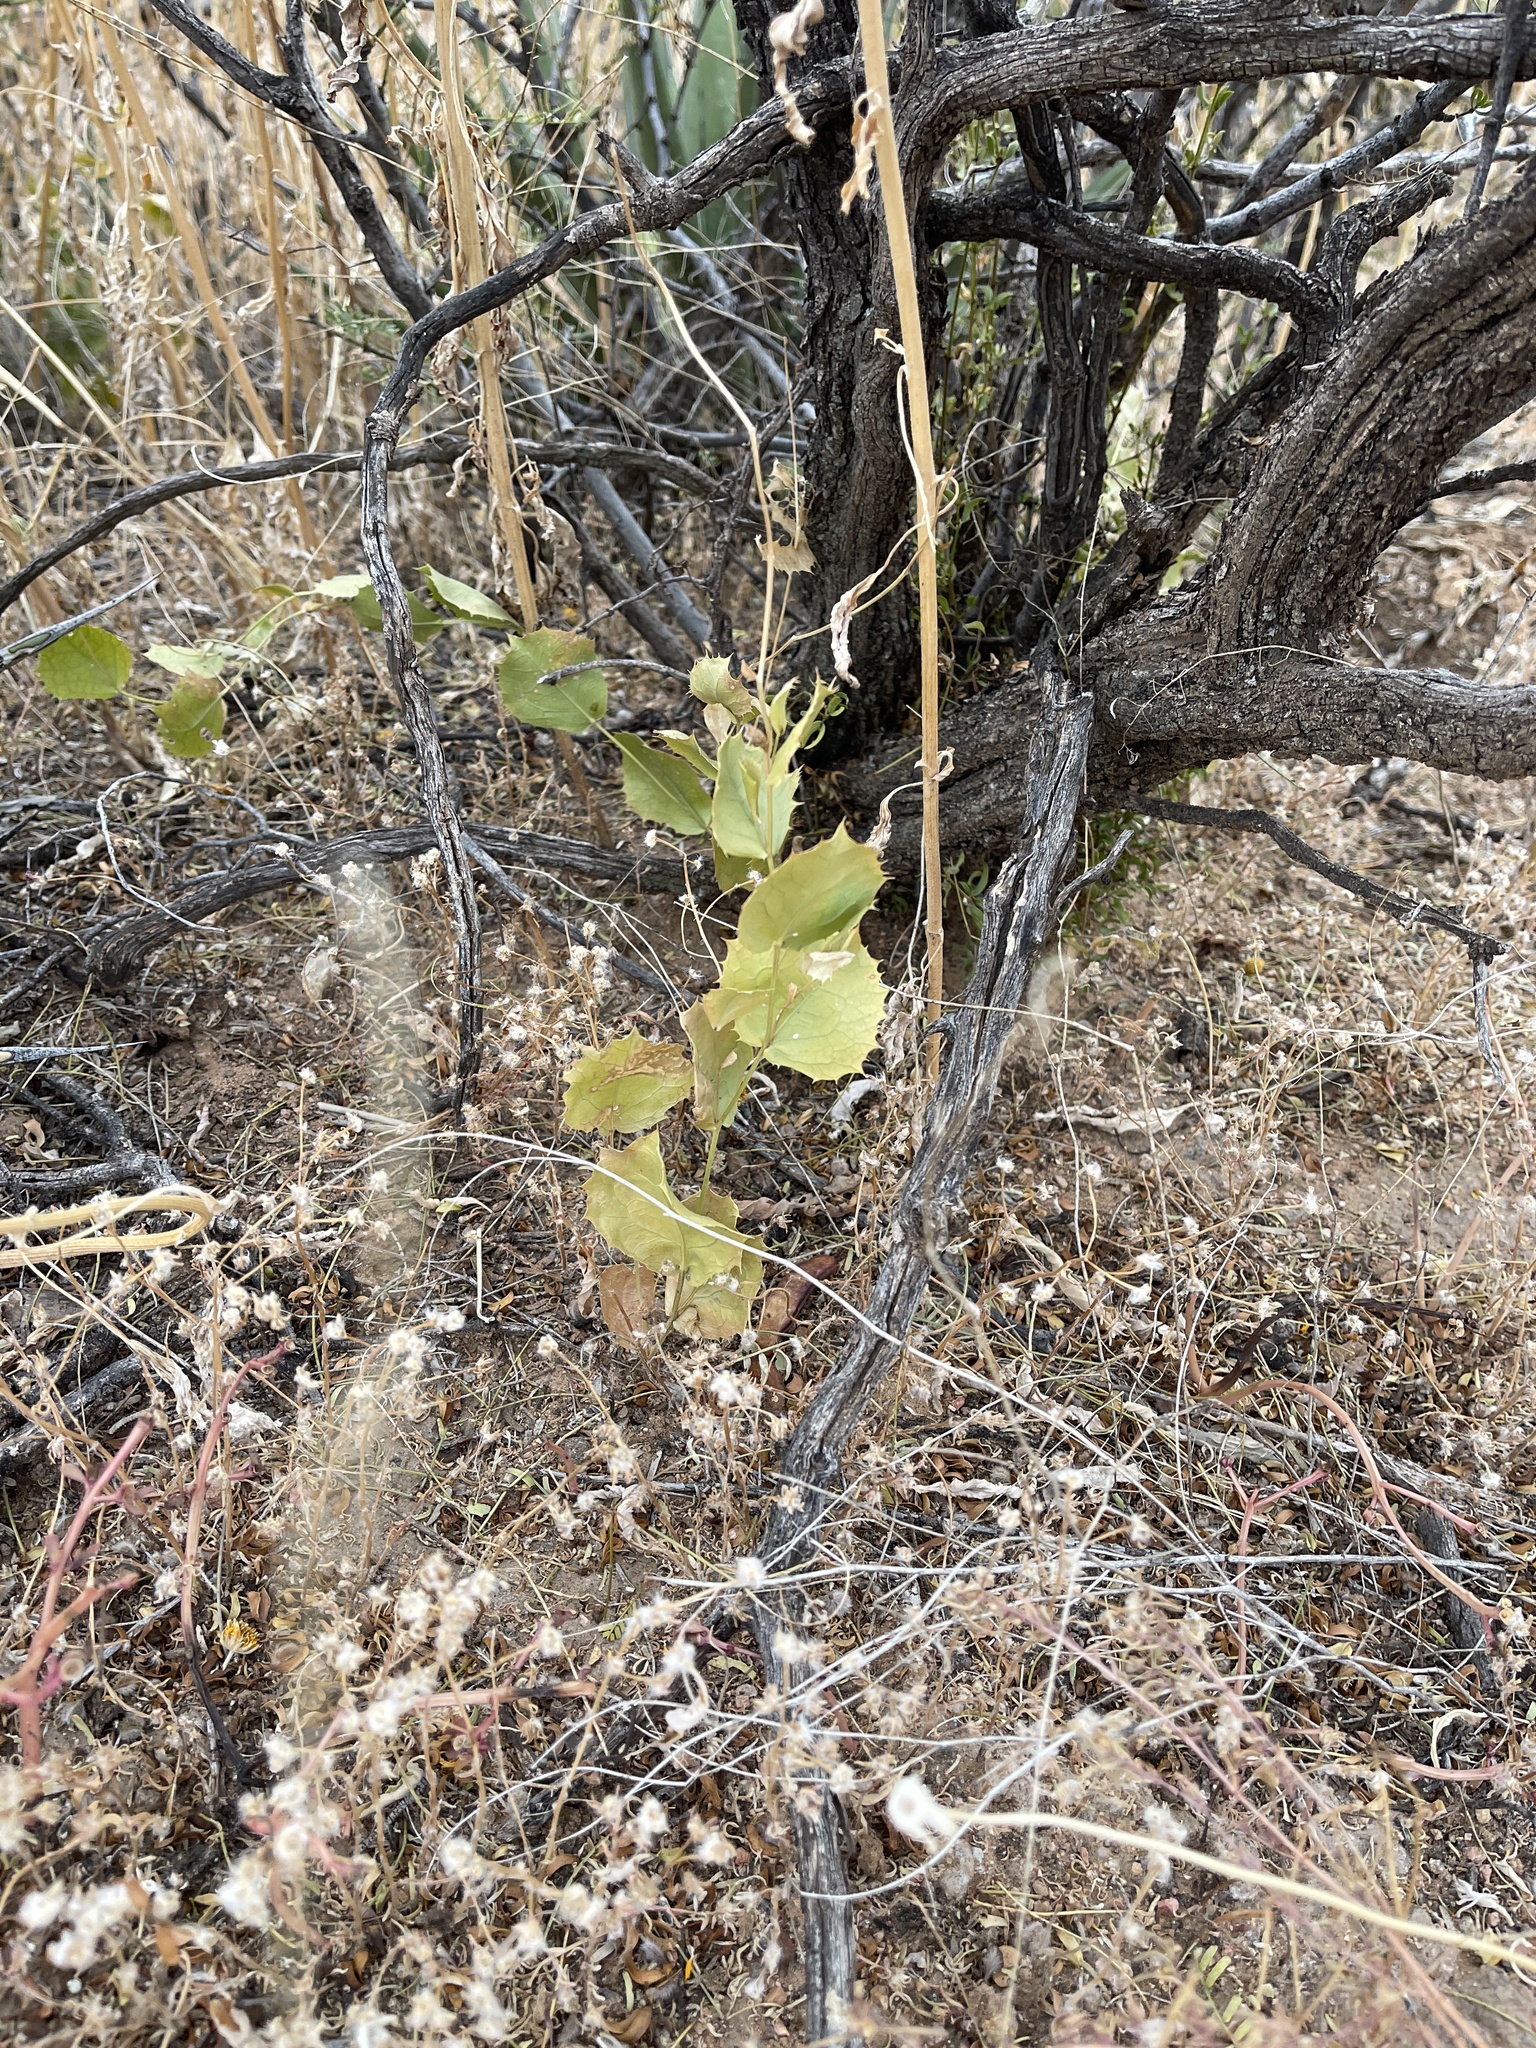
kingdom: Plantae
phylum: Tracheophyta
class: Magnoliopsida
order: Asterales
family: Asteraceae
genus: Acourtia
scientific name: Acourtia nana
